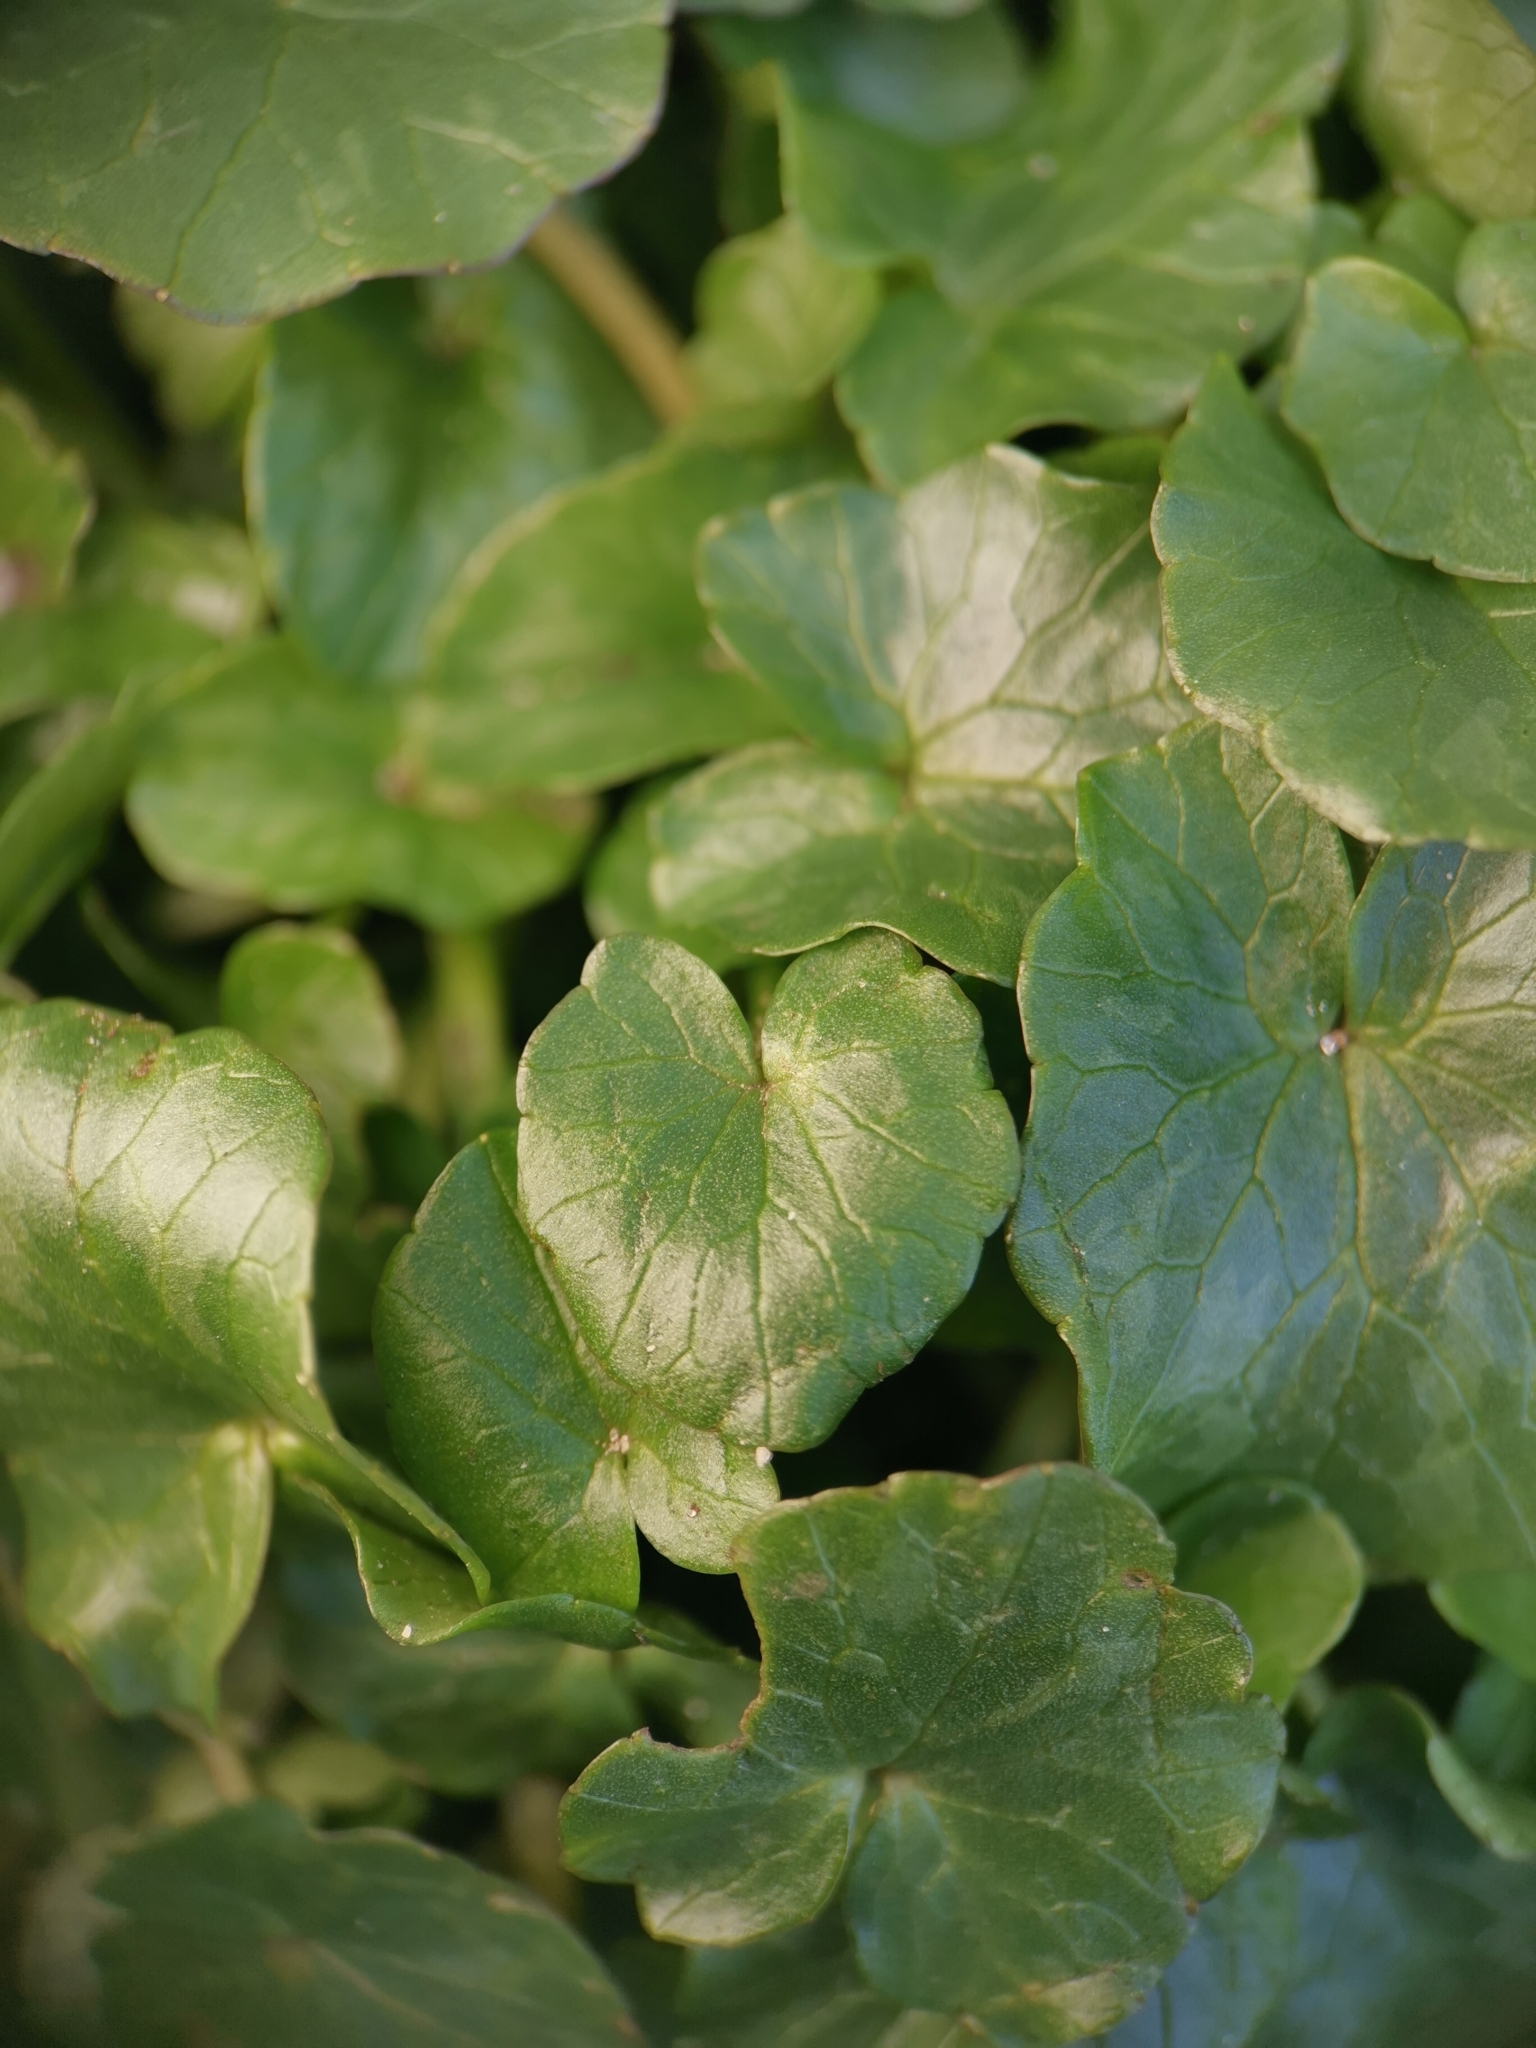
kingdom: Plantae
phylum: Tracheophyta
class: Magnoliopsida
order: Ranunculales
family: Ranunculaceae
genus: Ficaria
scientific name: Ficaria verna
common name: Lesser celandine
